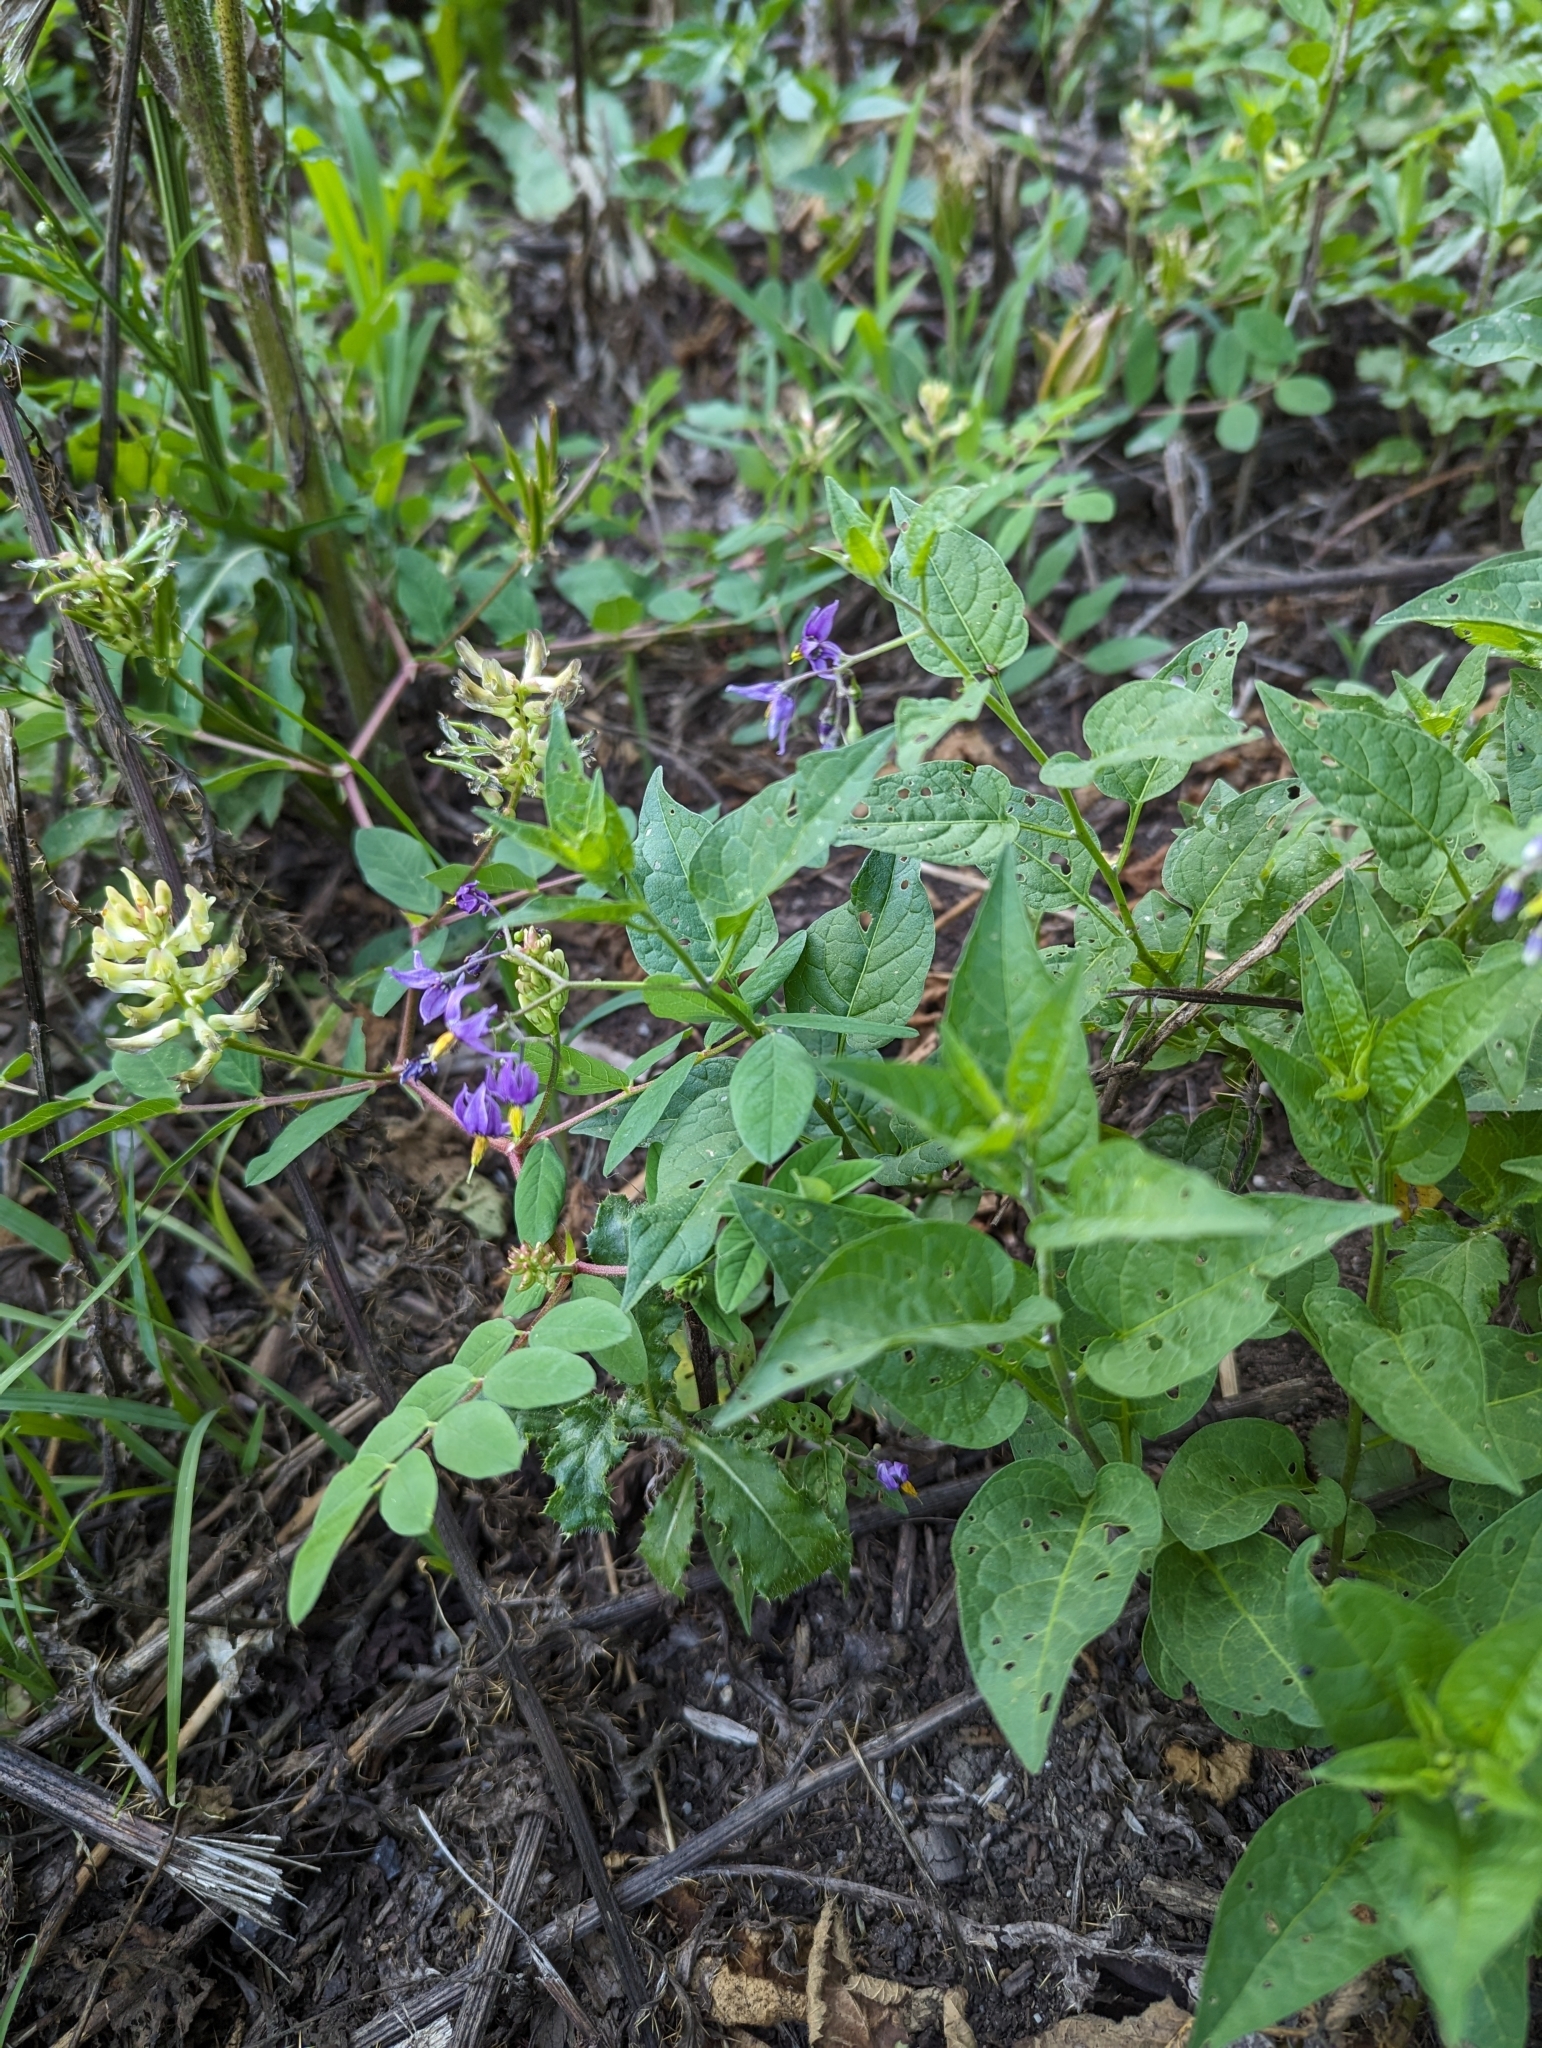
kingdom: Plantae
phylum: Tracheophyta
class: Magnoliopsida
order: Solanales
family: Solanaceae
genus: Solanum
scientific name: Solanum dulcamara
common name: Climbing nightshade
